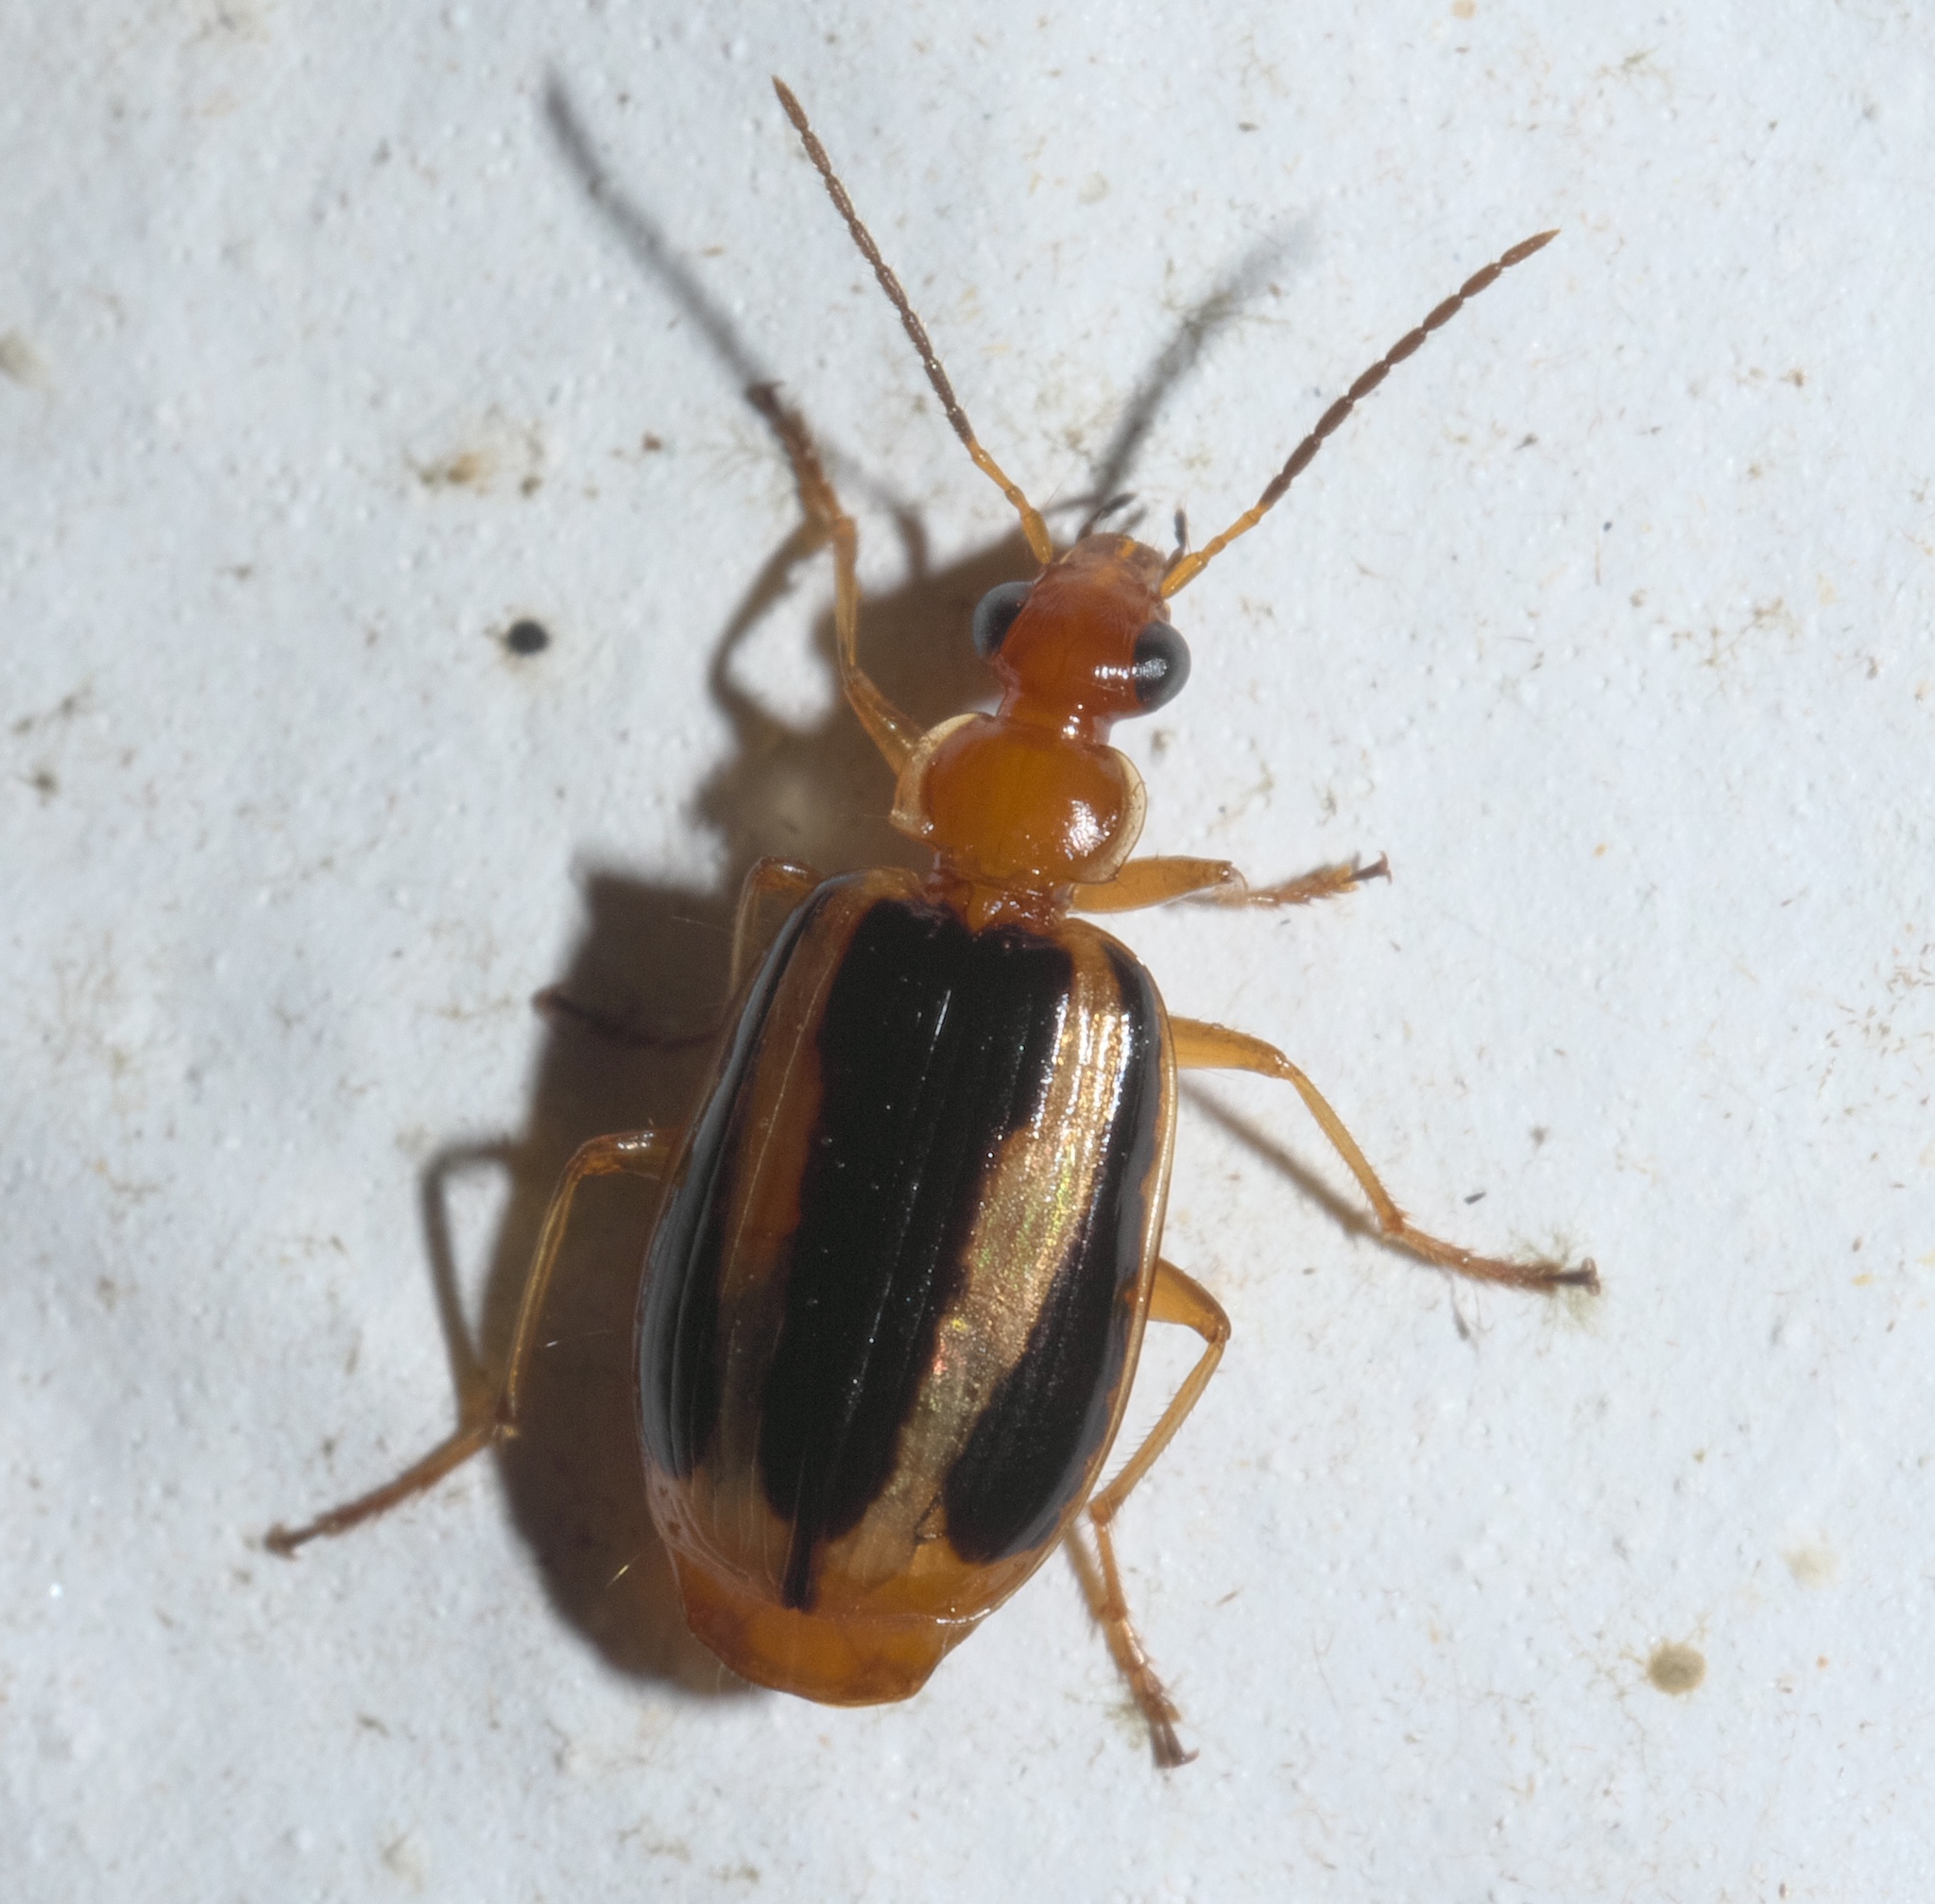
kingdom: Animalia
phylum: Arthropoda
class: Insecta
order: Coleoptera
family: Carabidae
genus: Lebia
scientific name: Lebia solea
